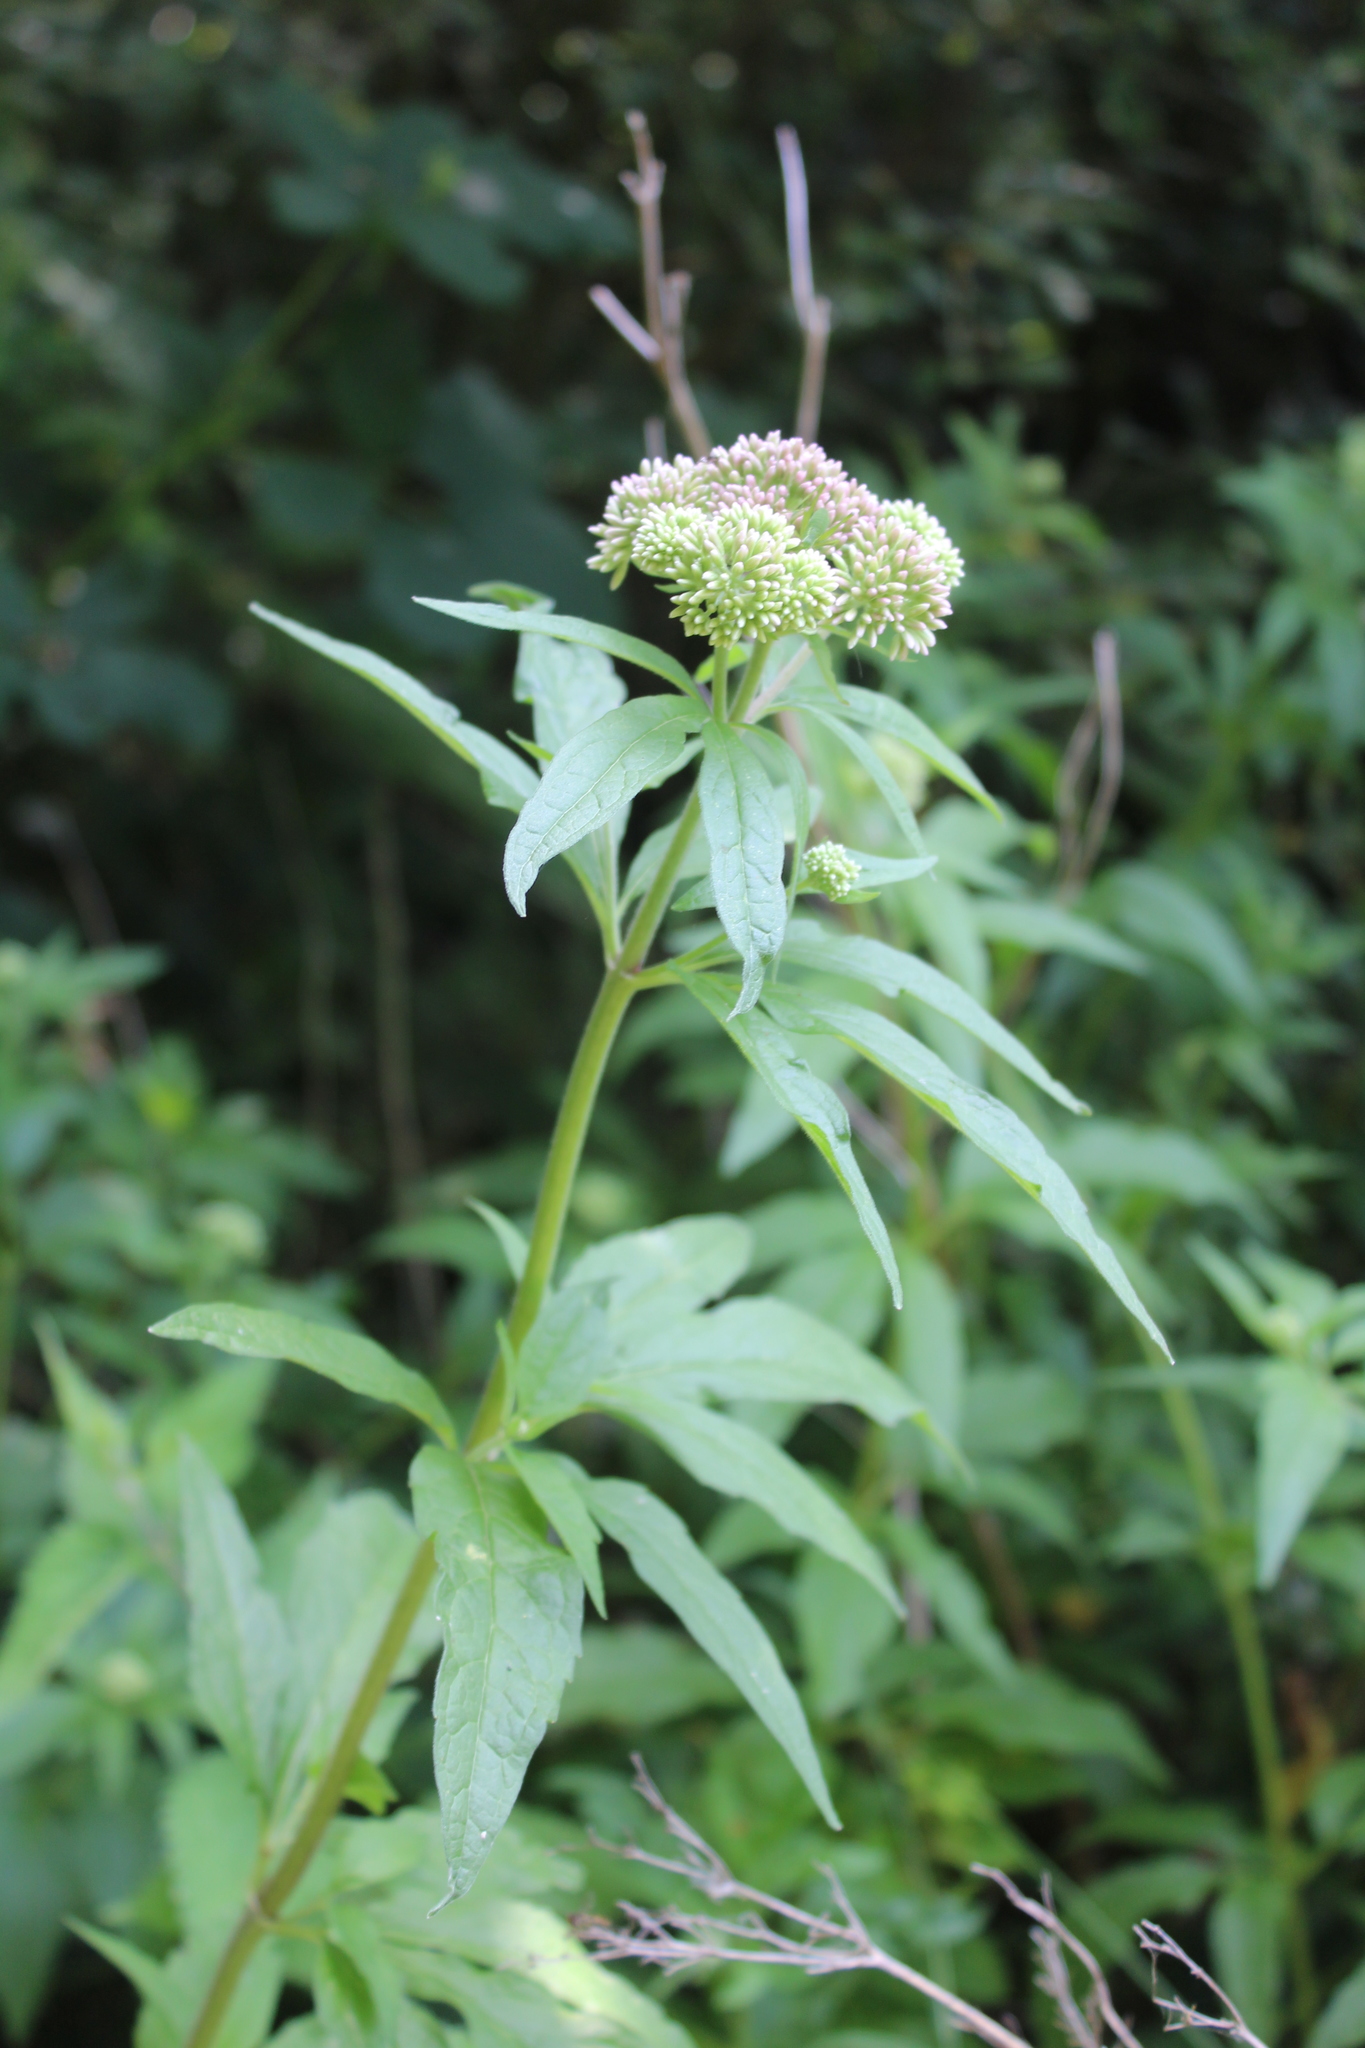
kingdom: Plantae
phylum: Tracheophyta
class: Magnoliopsida
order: Asterales
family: Asteraceae
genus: Eupatorium
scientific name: Eupatorium cannabinum
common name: Hemp-agrimony
